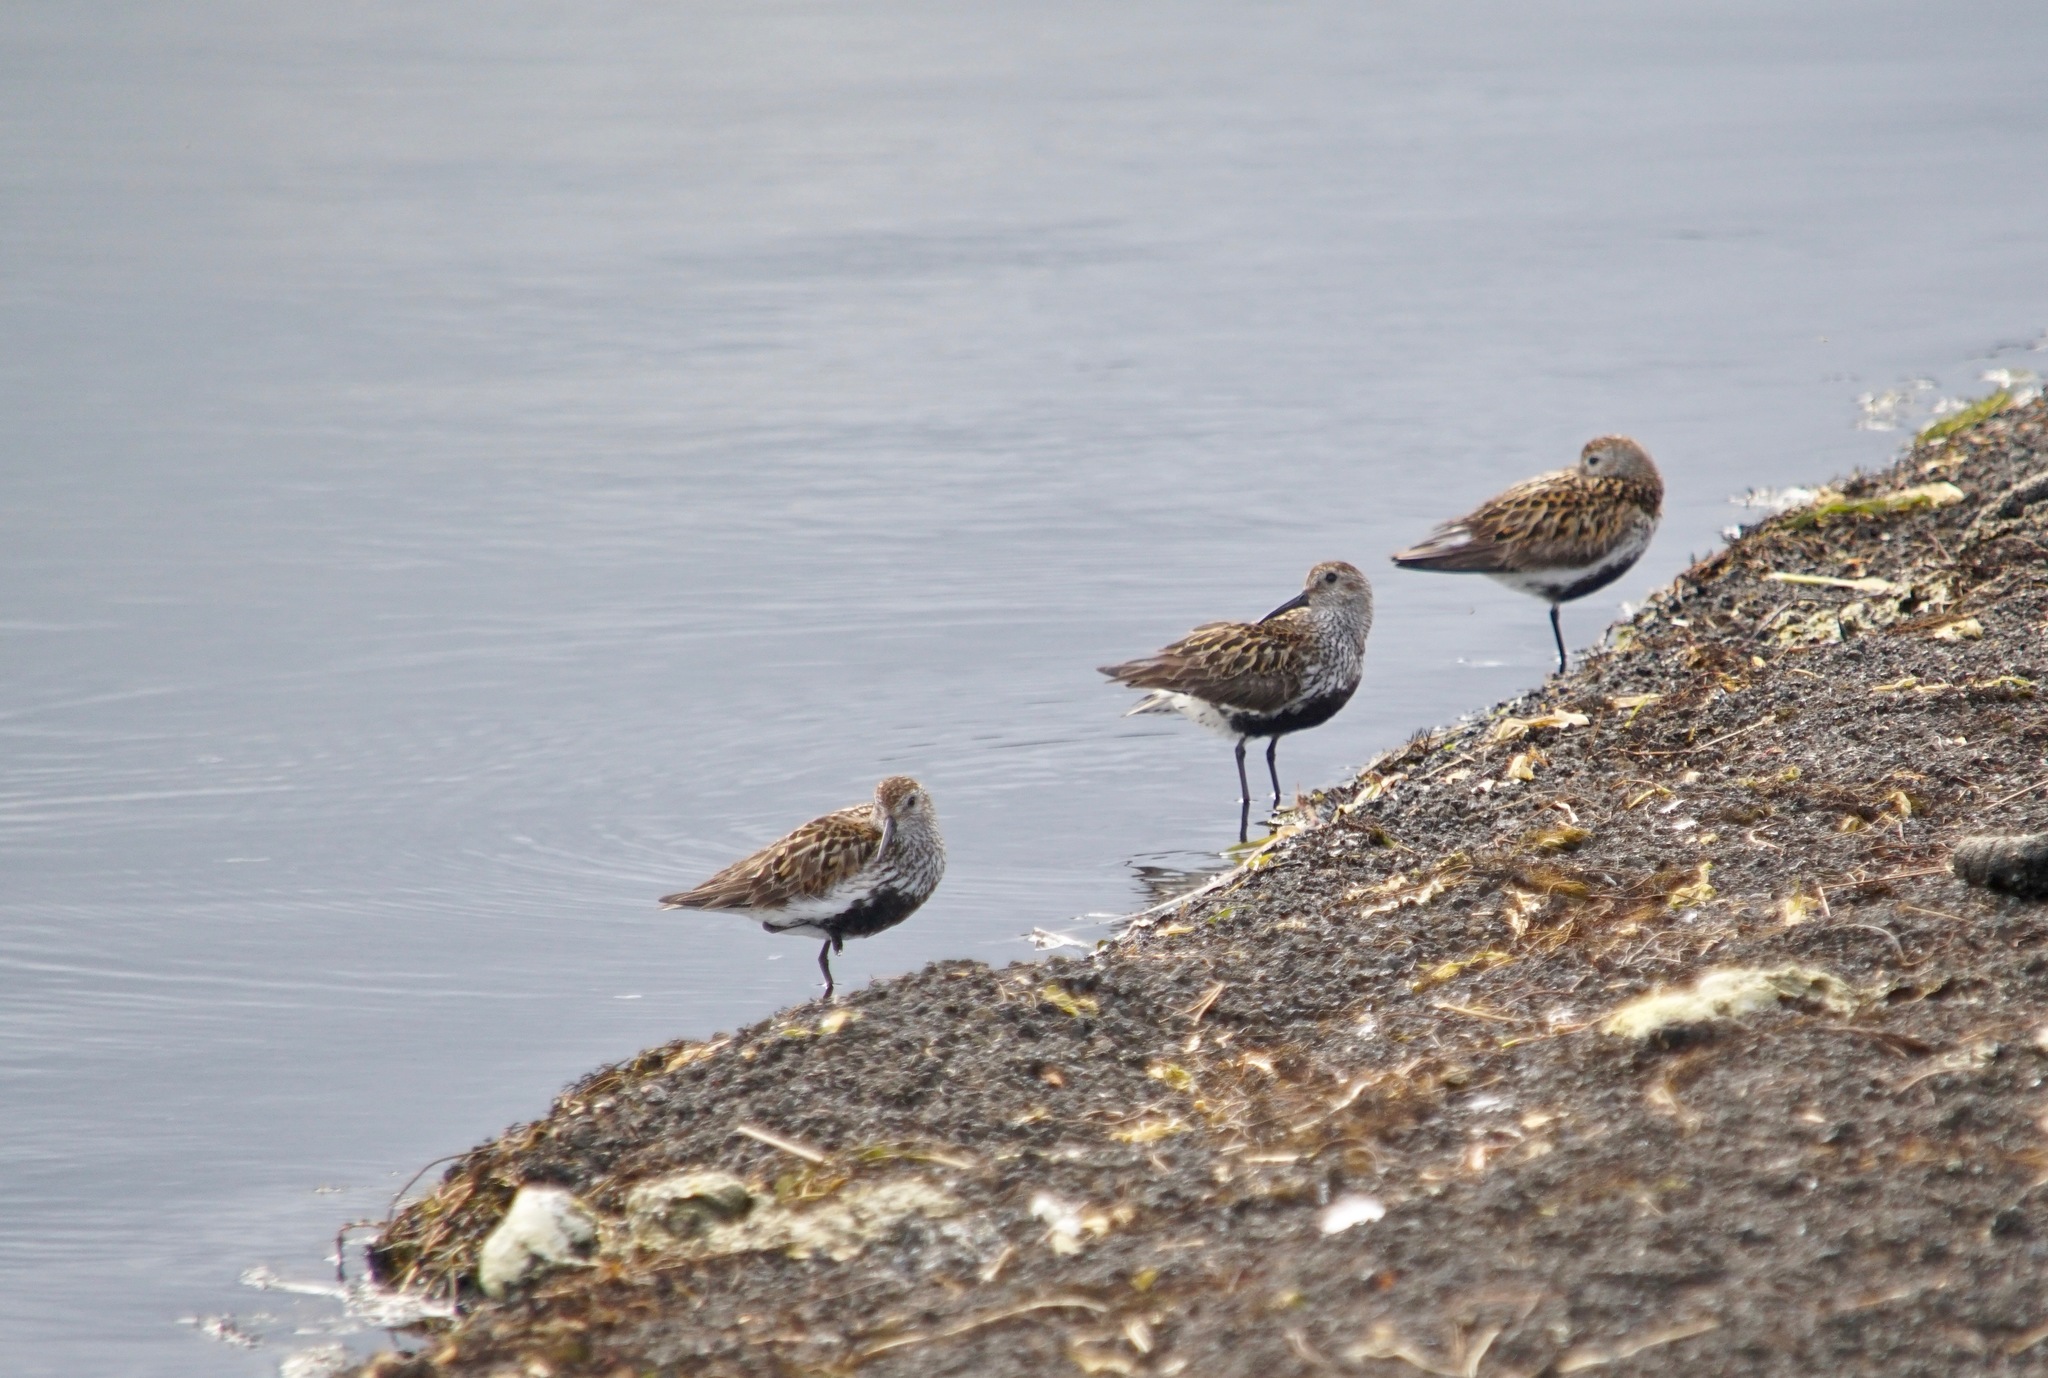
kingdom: Animalia
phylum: Chordata
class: Aves
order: Charadriiformes
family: Scolopacidae
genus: Calidris
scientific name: Calidris alpina
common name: Dunlin
